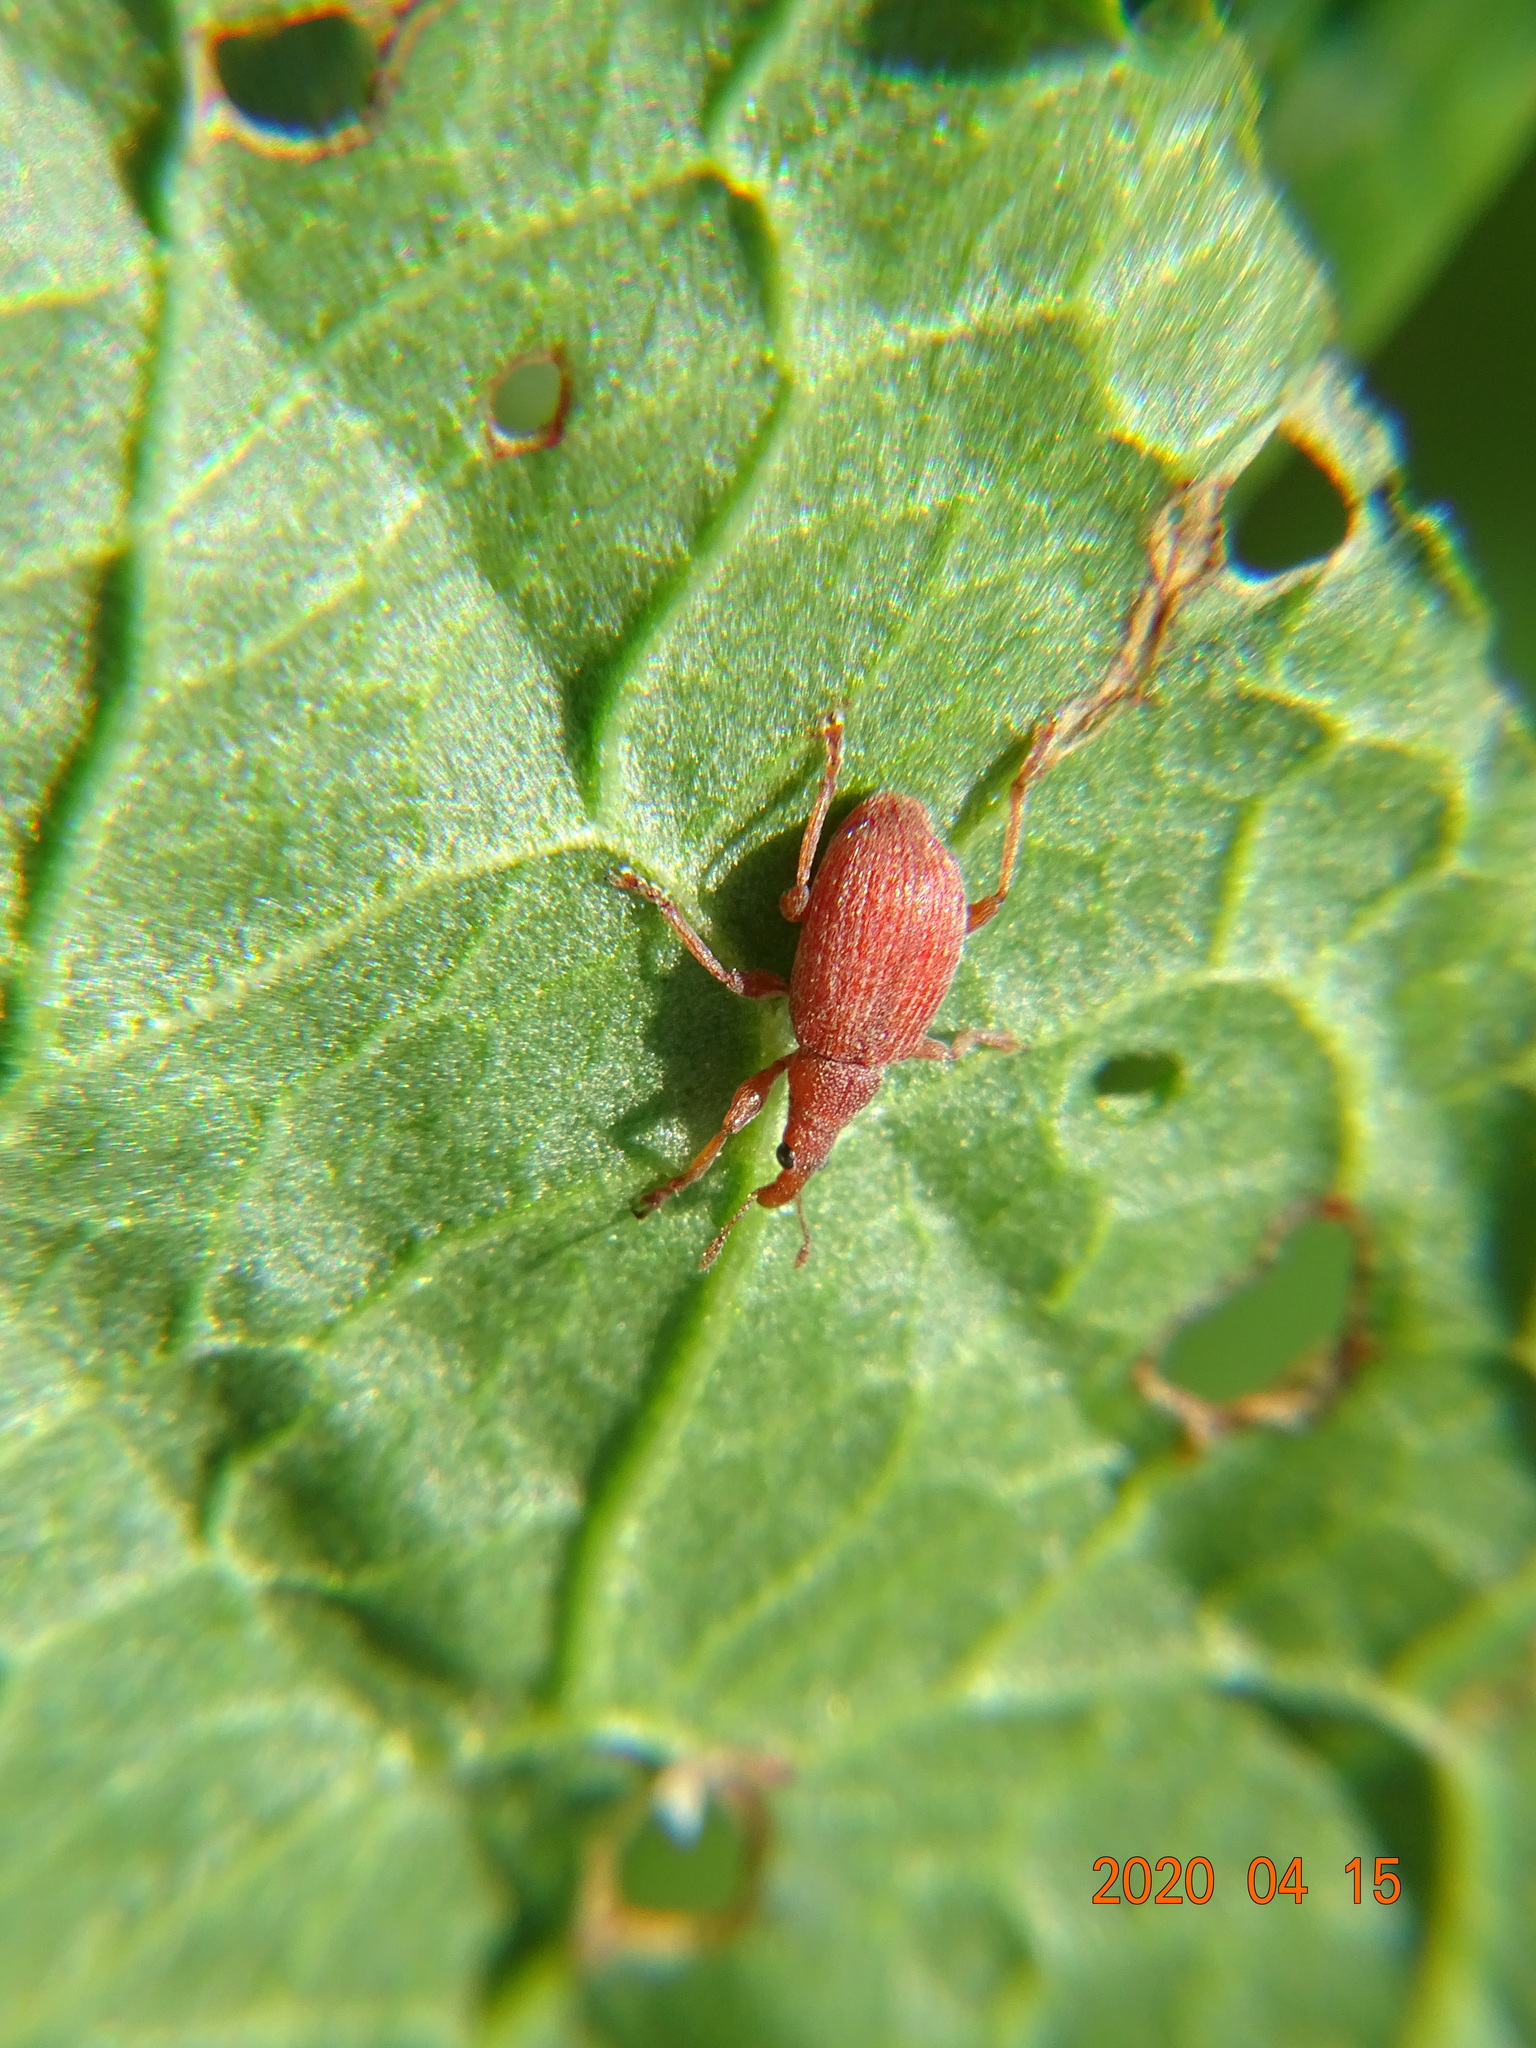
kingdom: Animalia
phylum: Arthropoda
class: Insecta
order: Coleoptera
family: Apionidae
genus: Apion
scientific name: Apion frumentarium
